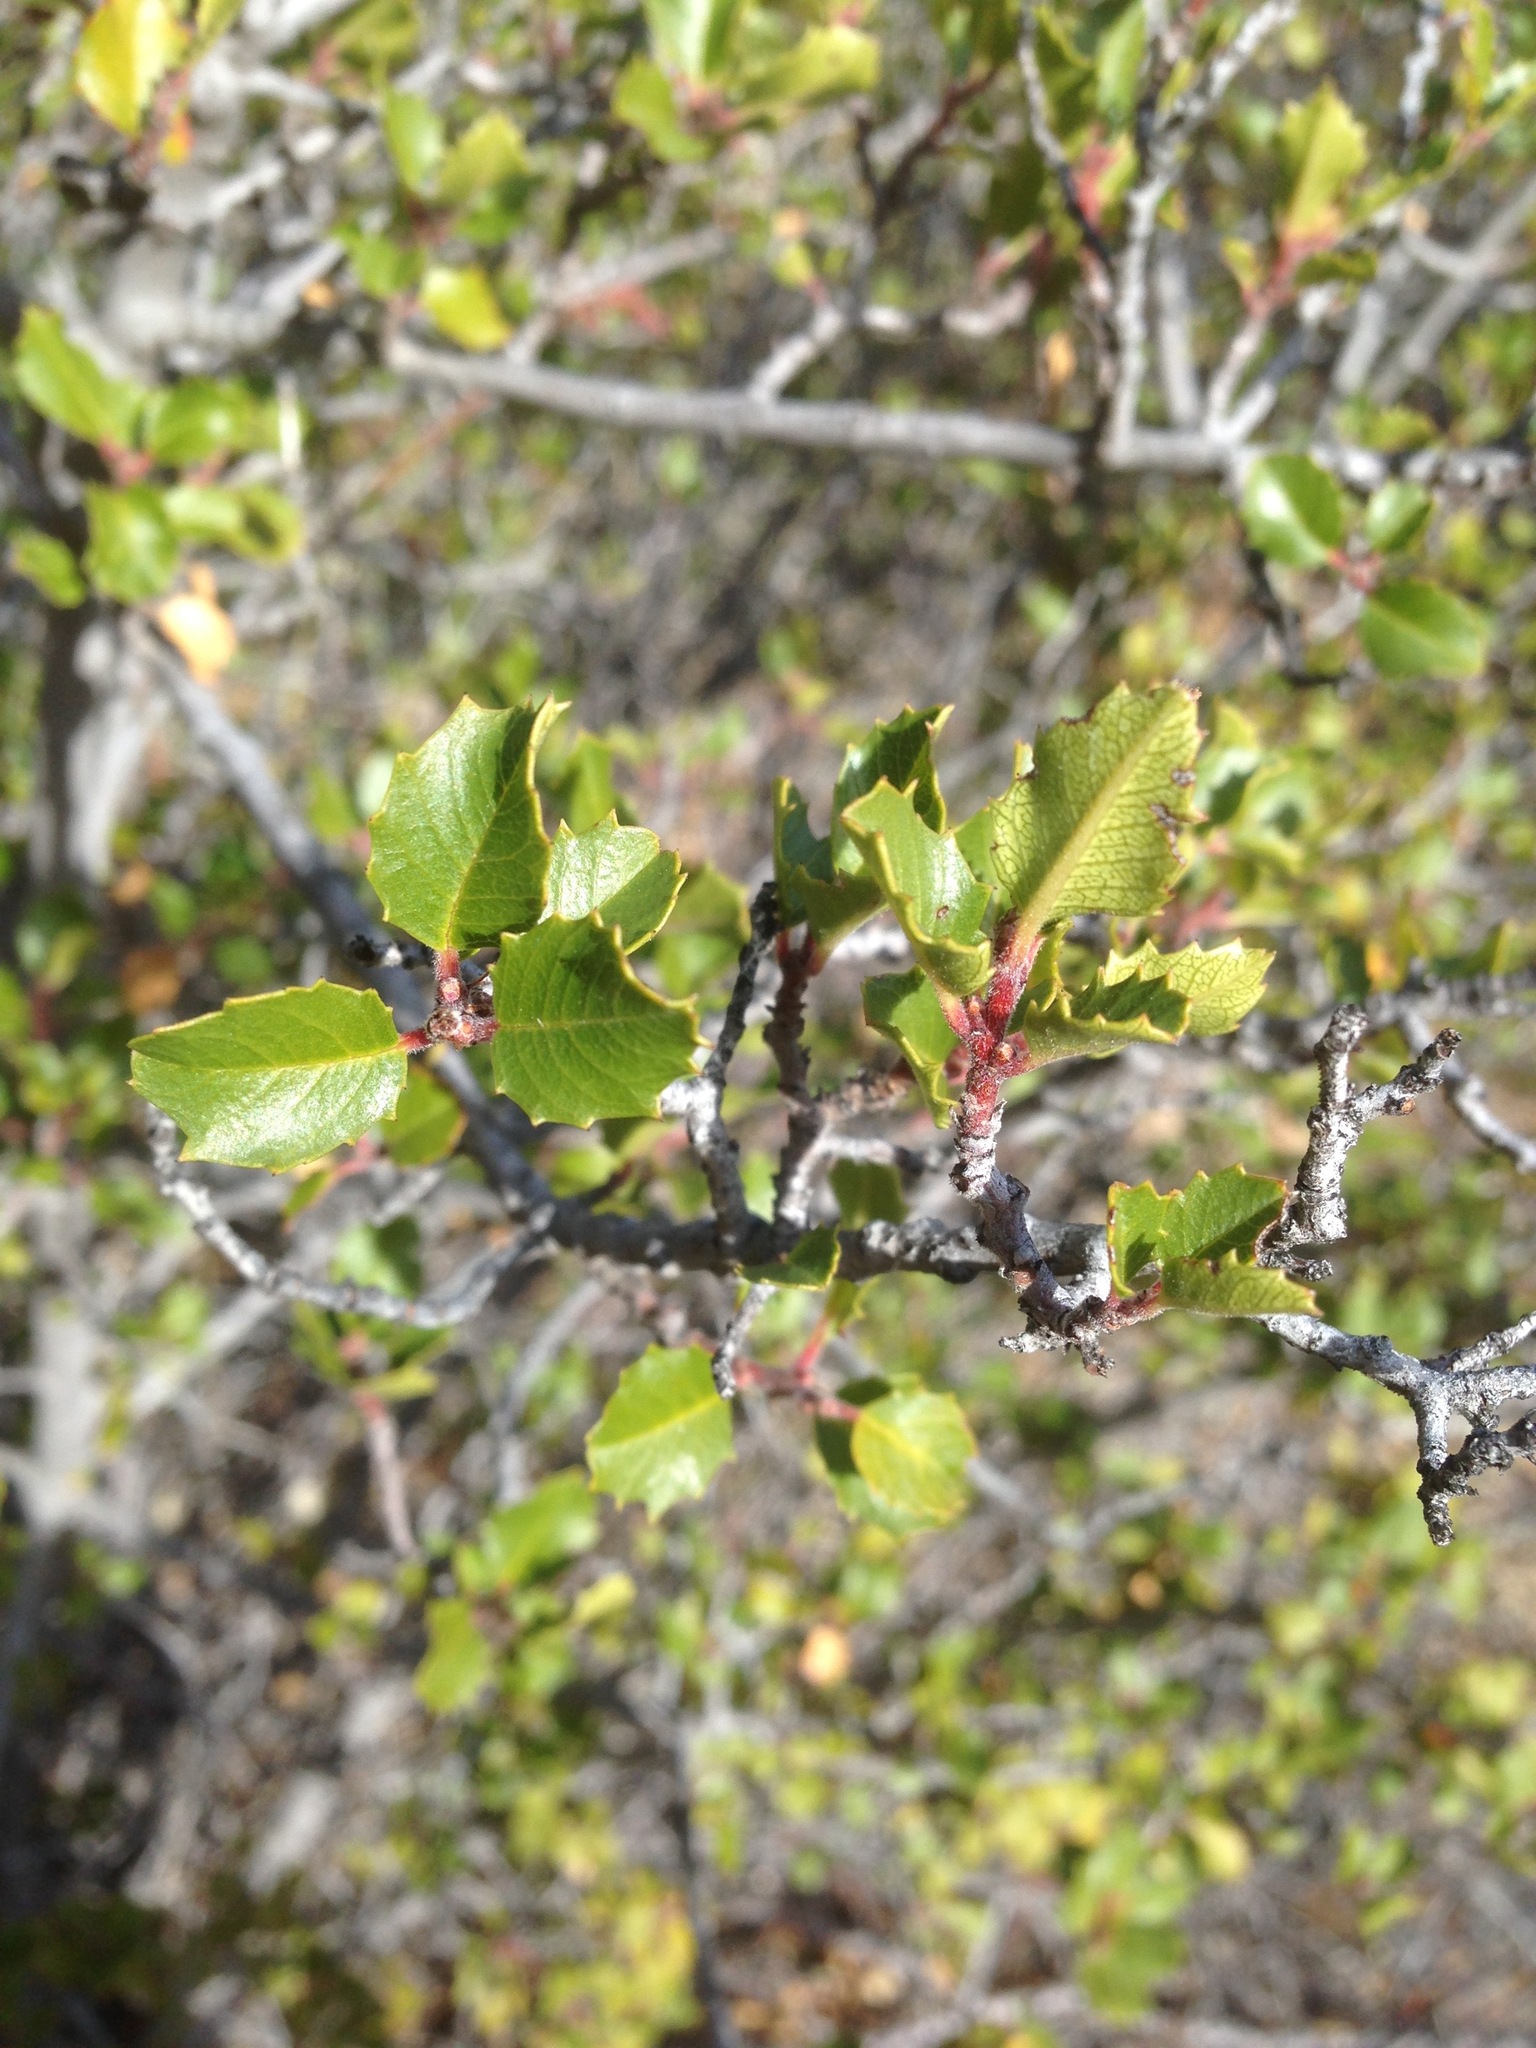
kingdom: Plantae
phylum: Tracheophyta
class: Magnoliopsida
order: Rosales
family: Rhamnaceae
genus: Endotropis
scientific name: Endotropis crocea
